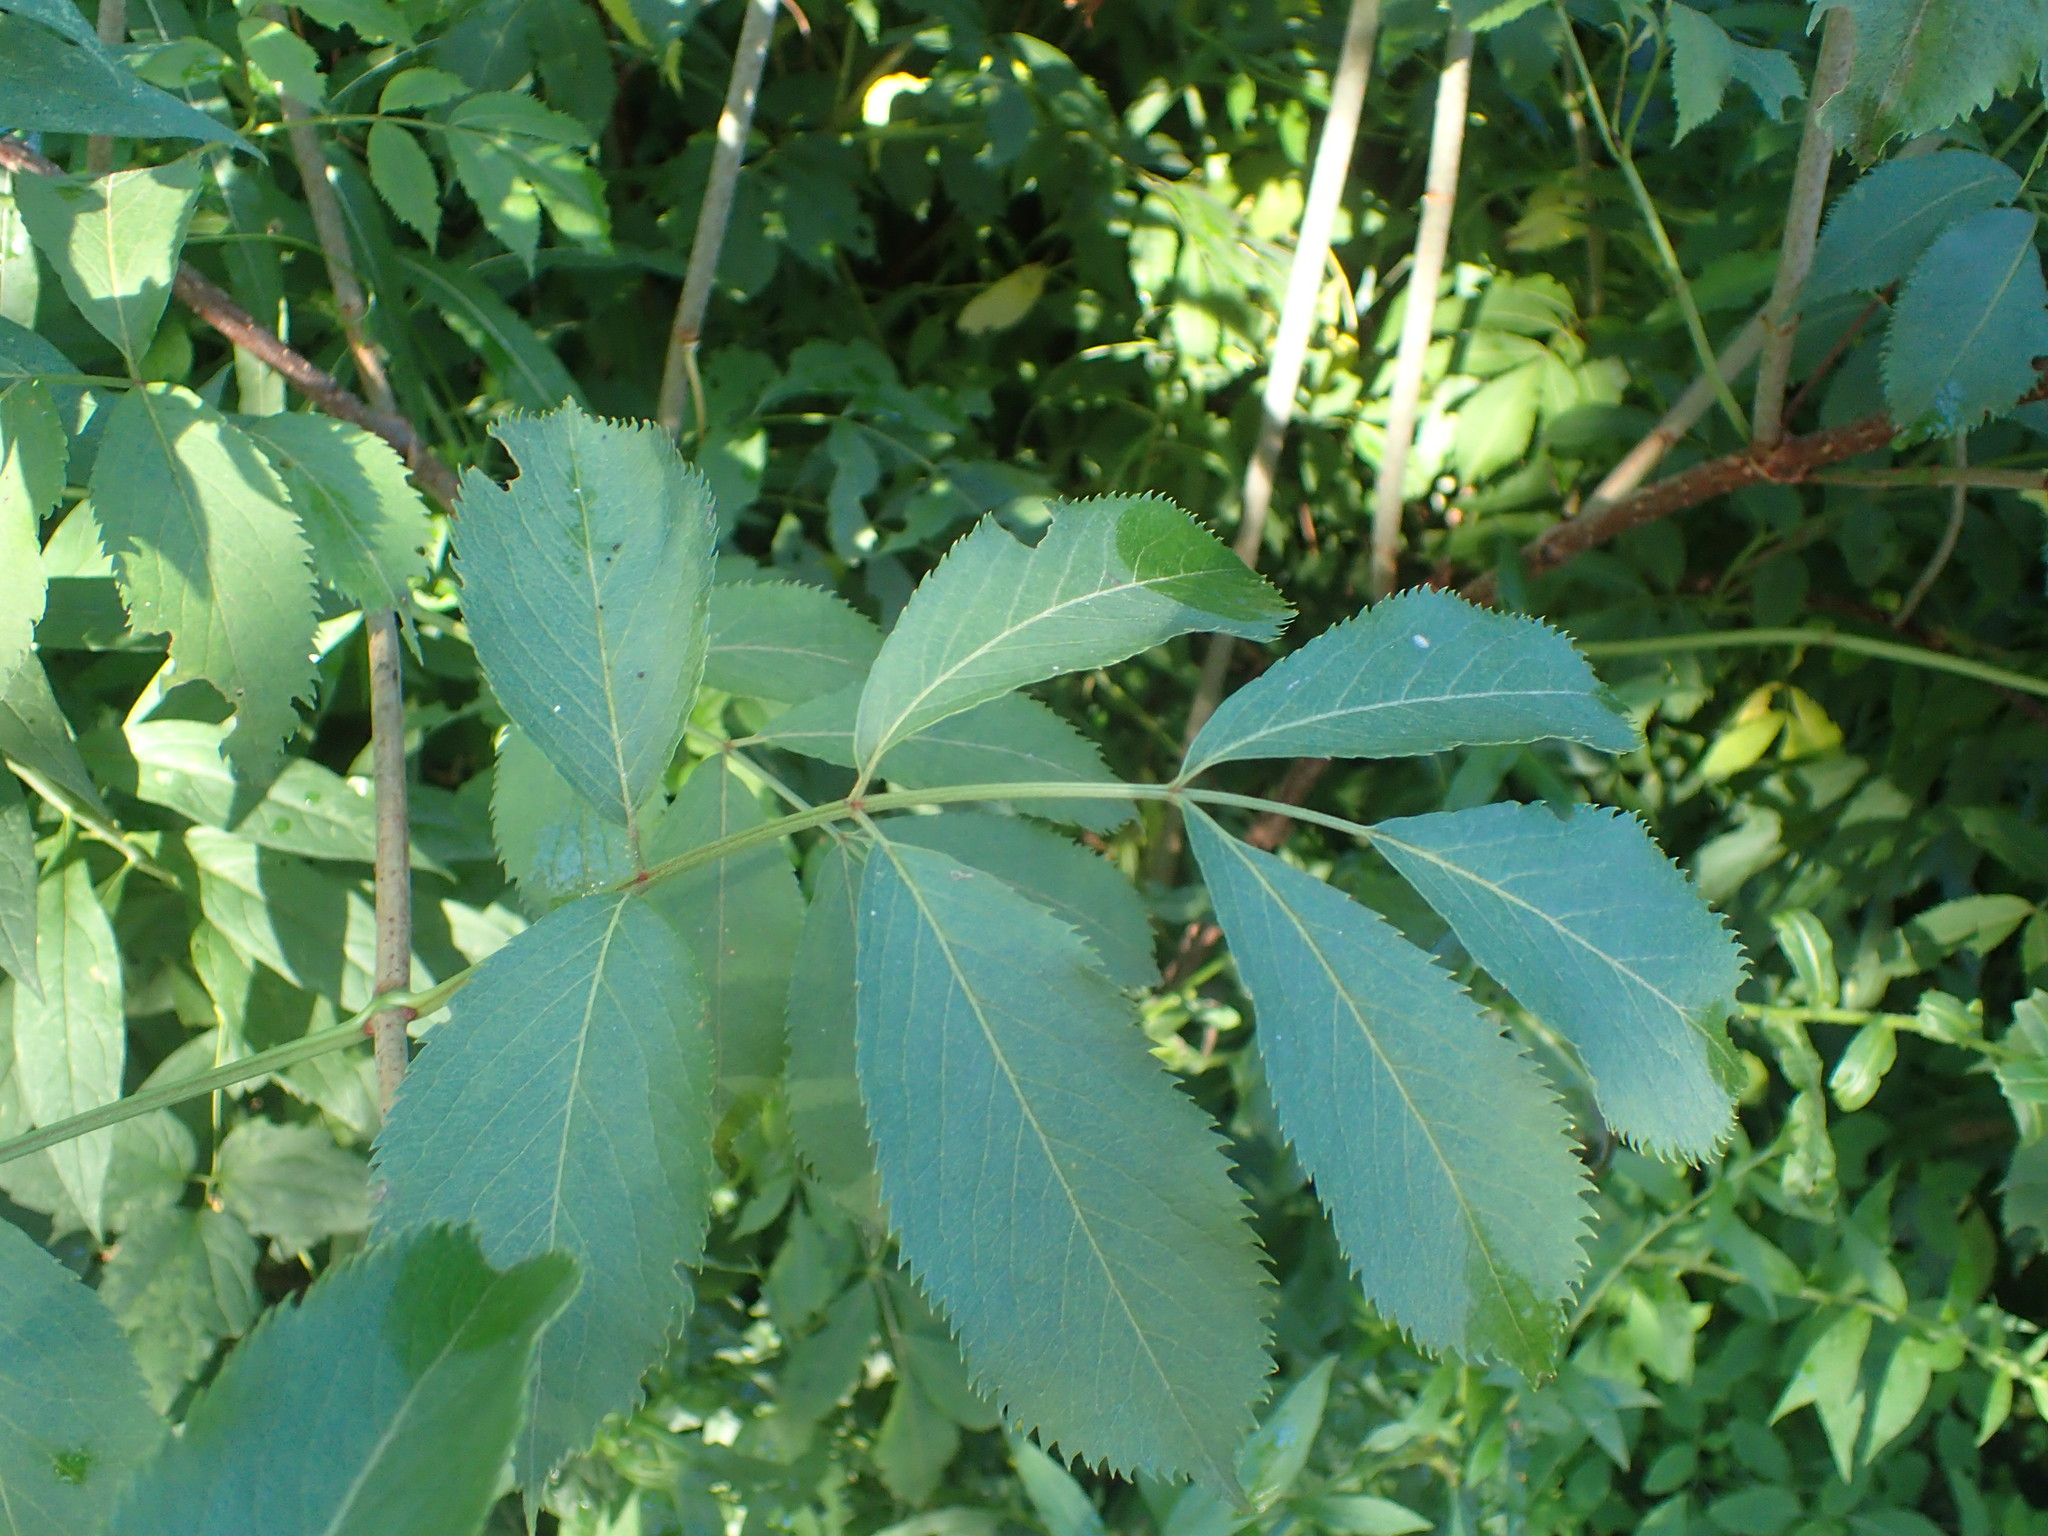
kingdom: Plantae
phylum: Tracheophyta
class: Magnoliopsida
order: Dipsacales
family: Viburnaceae
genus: Sambucus
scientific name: Sambucus canadensis
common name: American elder
